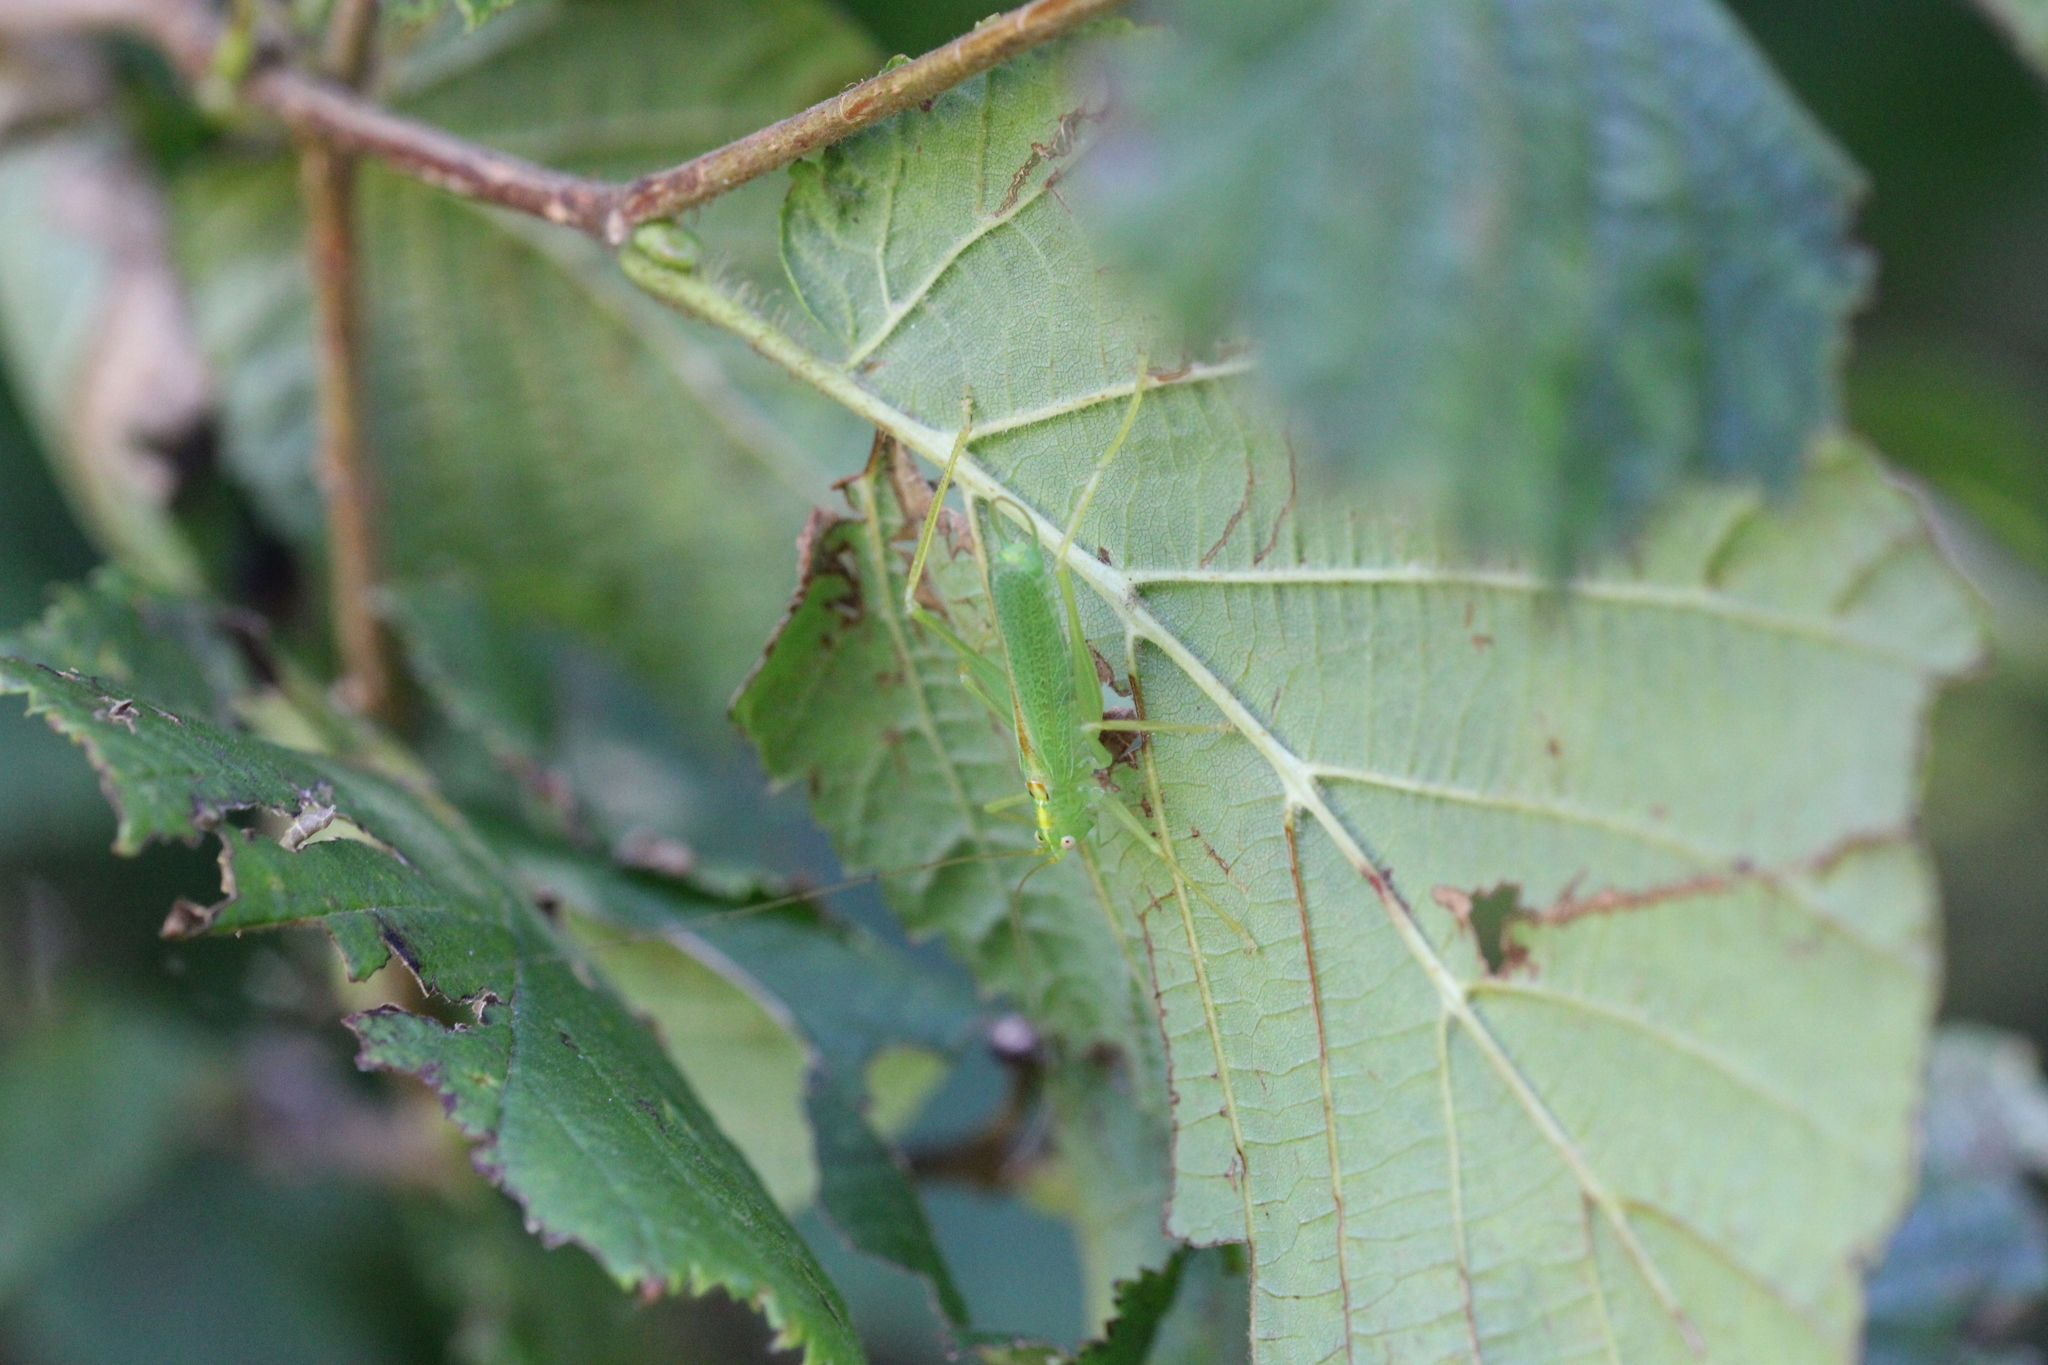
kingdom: Animalia
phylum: Arthropoda
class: Insecta
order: Orthoptera
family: Tettigoniidae
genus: Meconema
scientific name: Meconema thalassinum
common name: Oak bush-cricket
